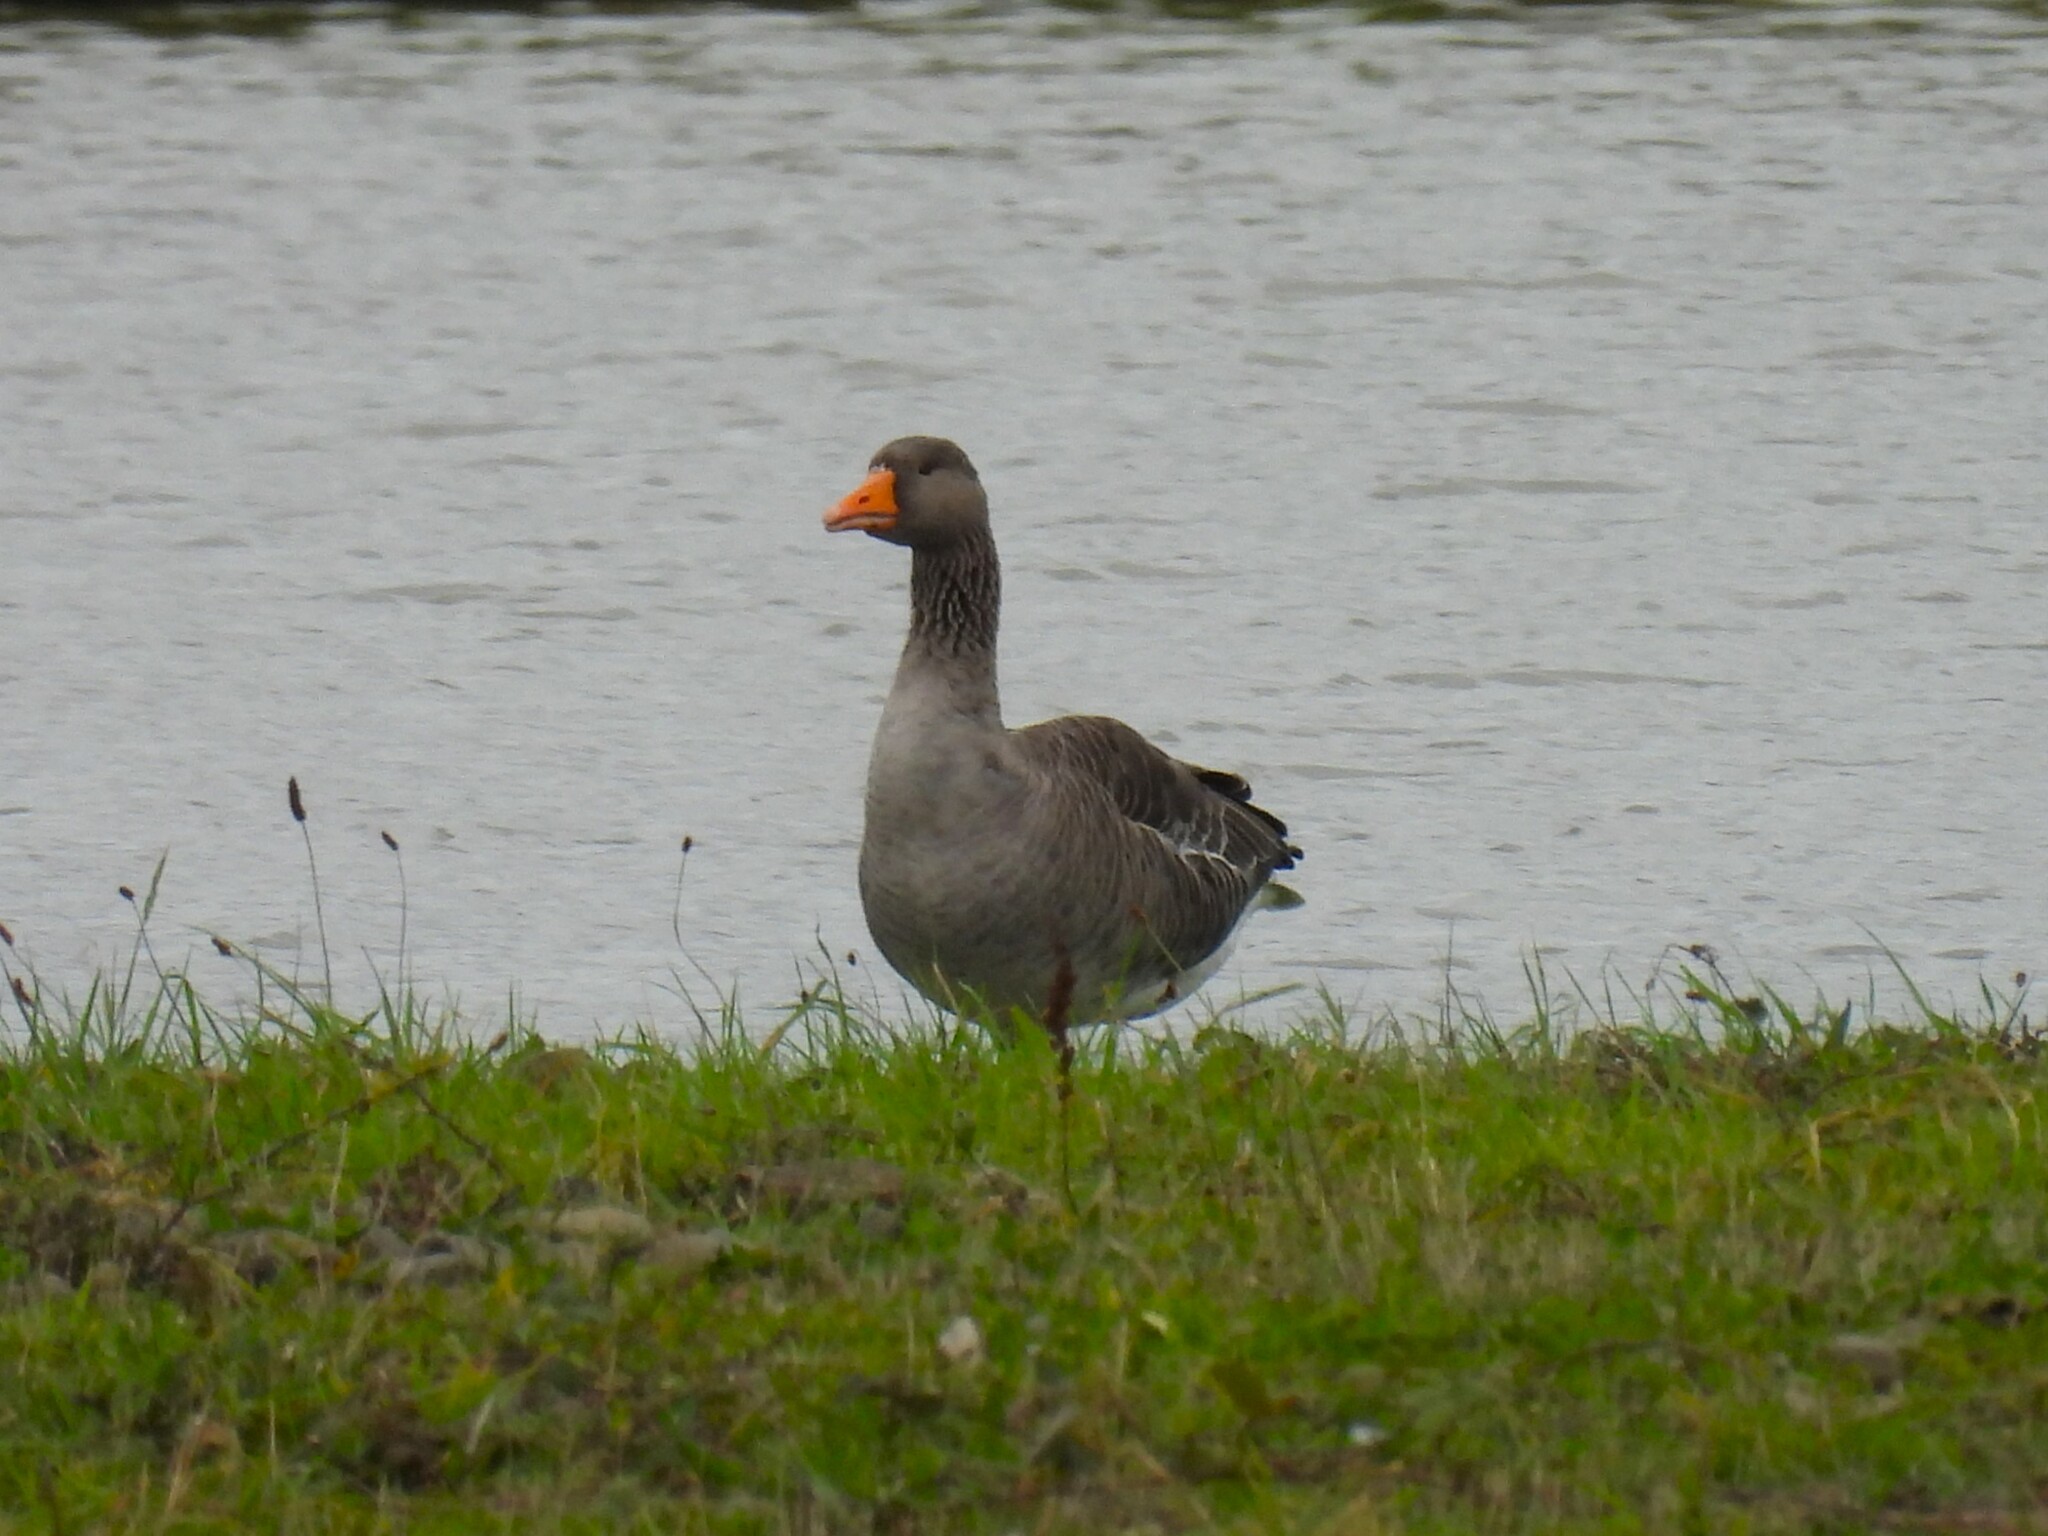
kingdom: Animalia
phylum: Chordata
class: Aves
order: Anseriformes
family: Anatidae
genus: Anser
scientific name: Anser anser
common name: Greylag goose
